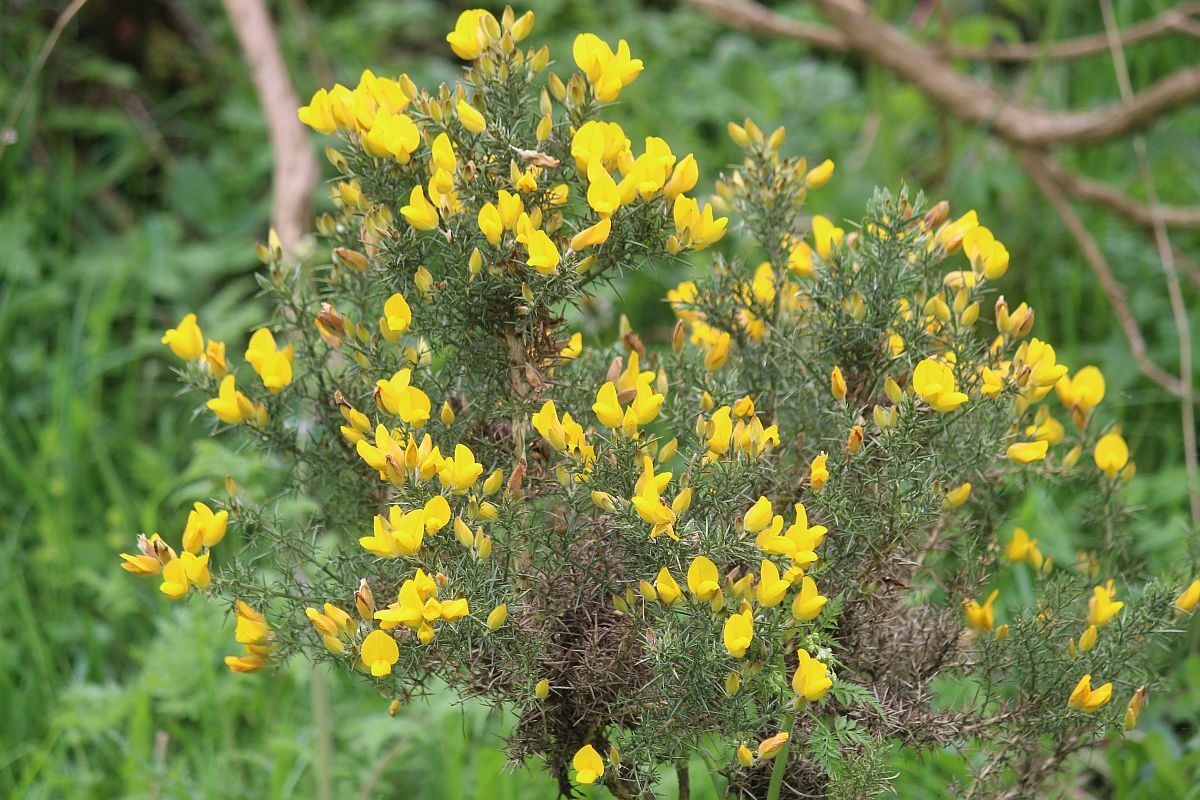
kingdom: Plantae
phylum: Tracheophyta
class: Magnoliopsida
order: Fabales
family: Fabaceae
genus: Ulex
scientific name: Ulex europaeus
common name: Common gorse
